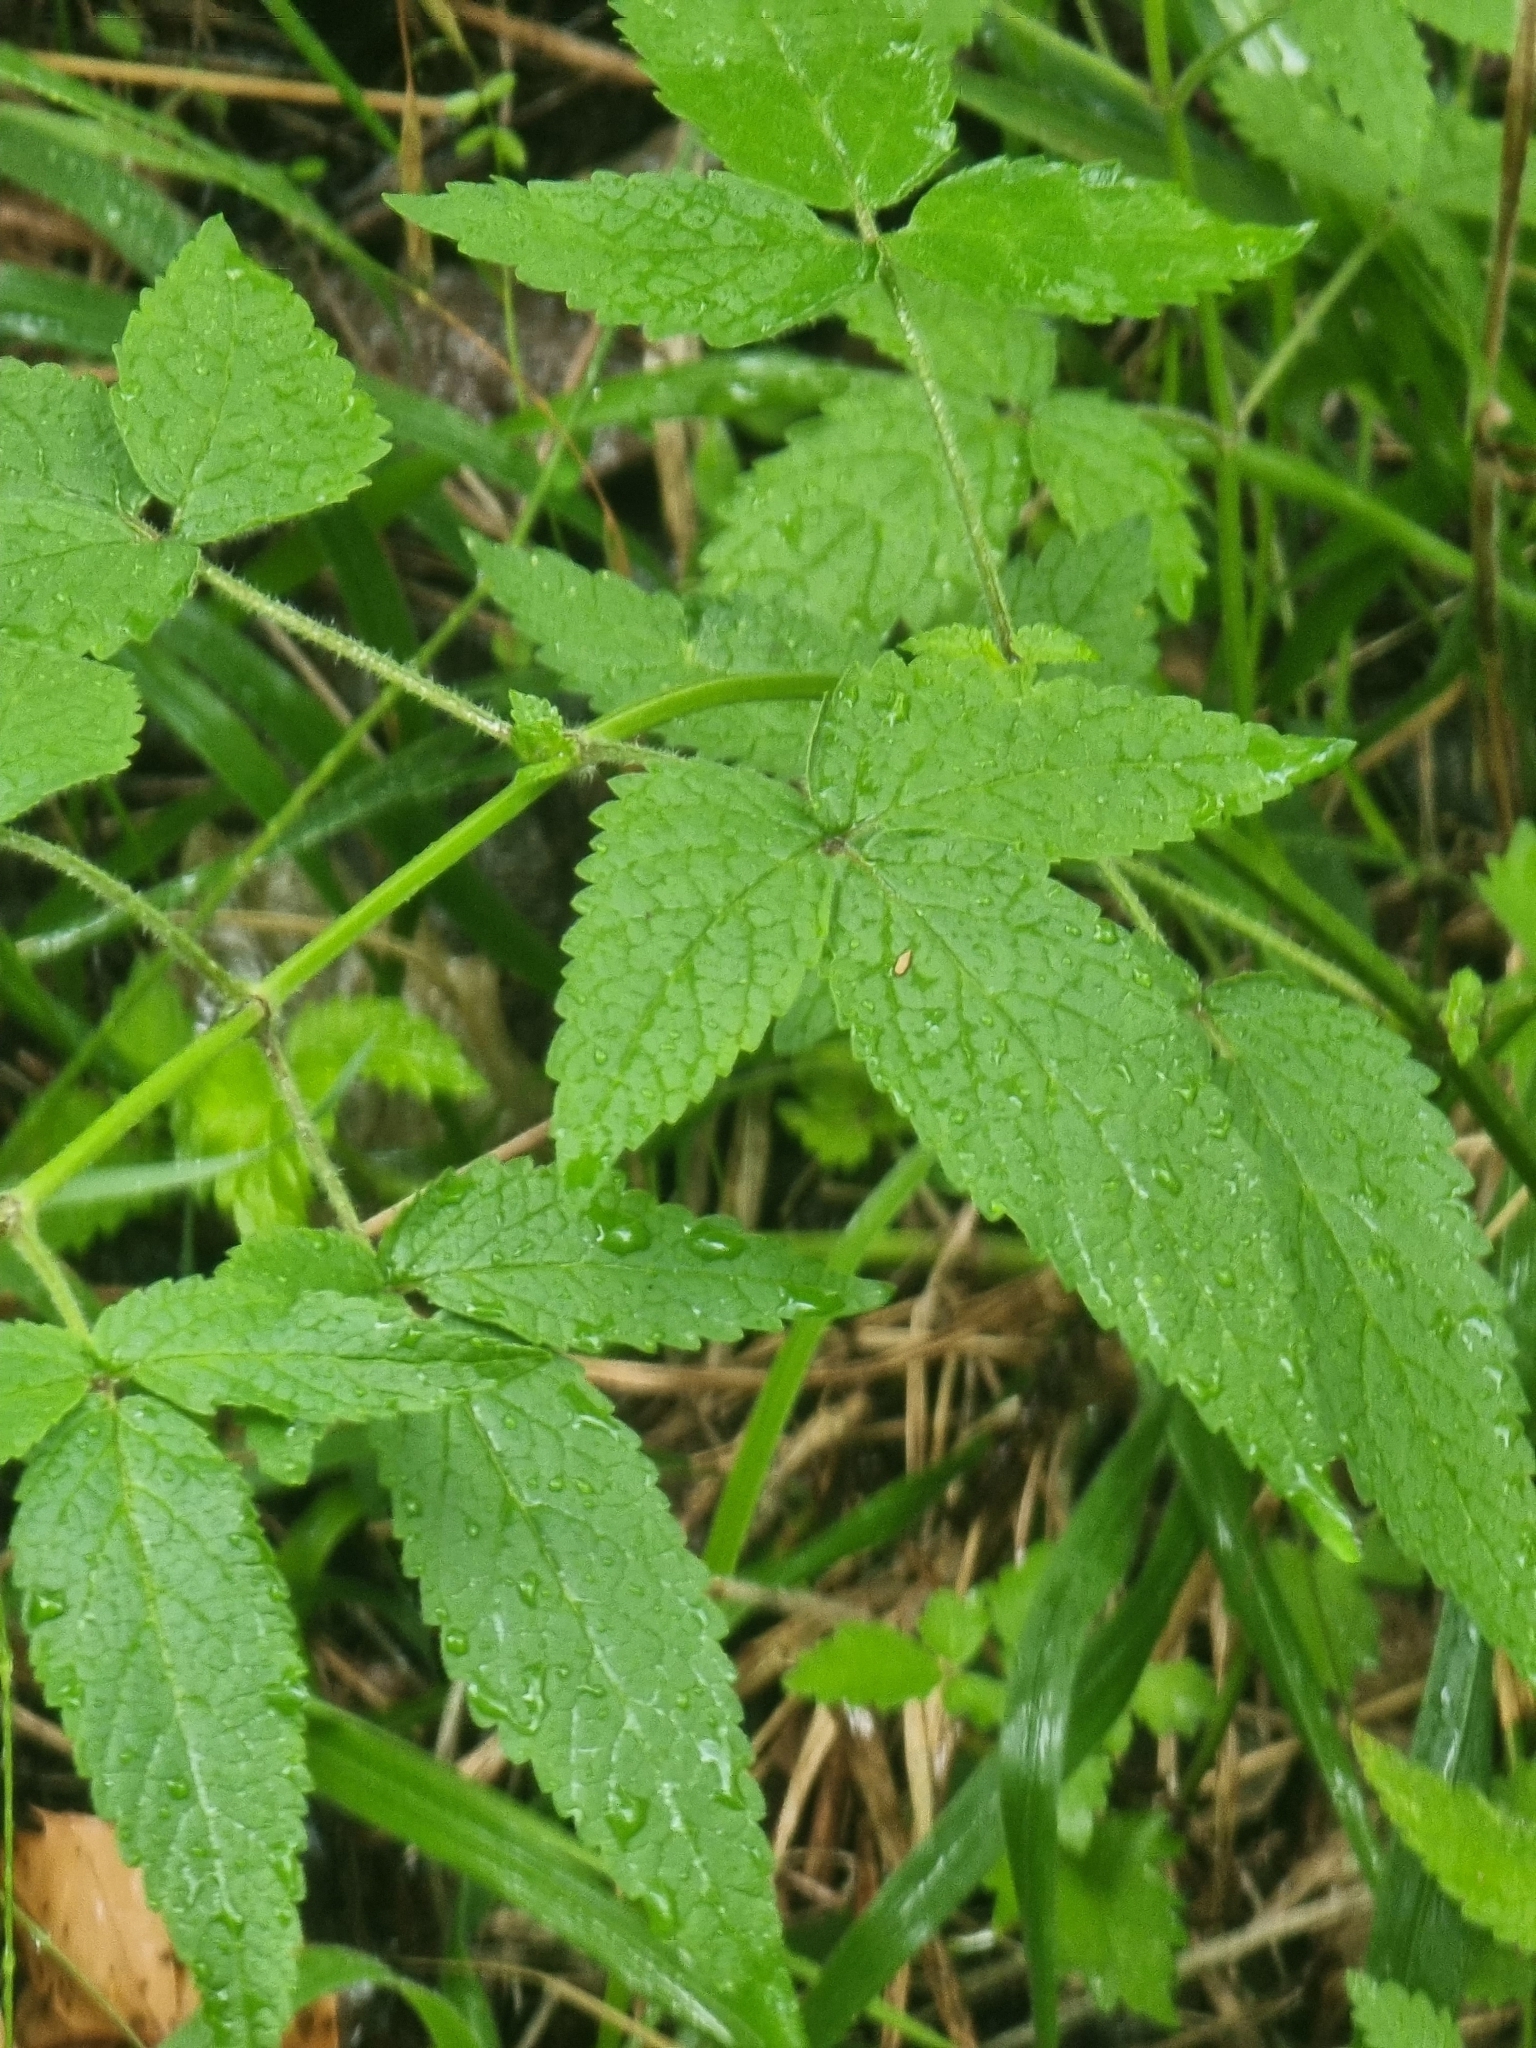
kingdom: Plantae
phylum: Tracheophyta
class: Magnoliopsida
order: Lamiales
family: Lamiaceae
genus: Cedronella
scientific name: Cedronella canariensis
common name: Canary islands balm
